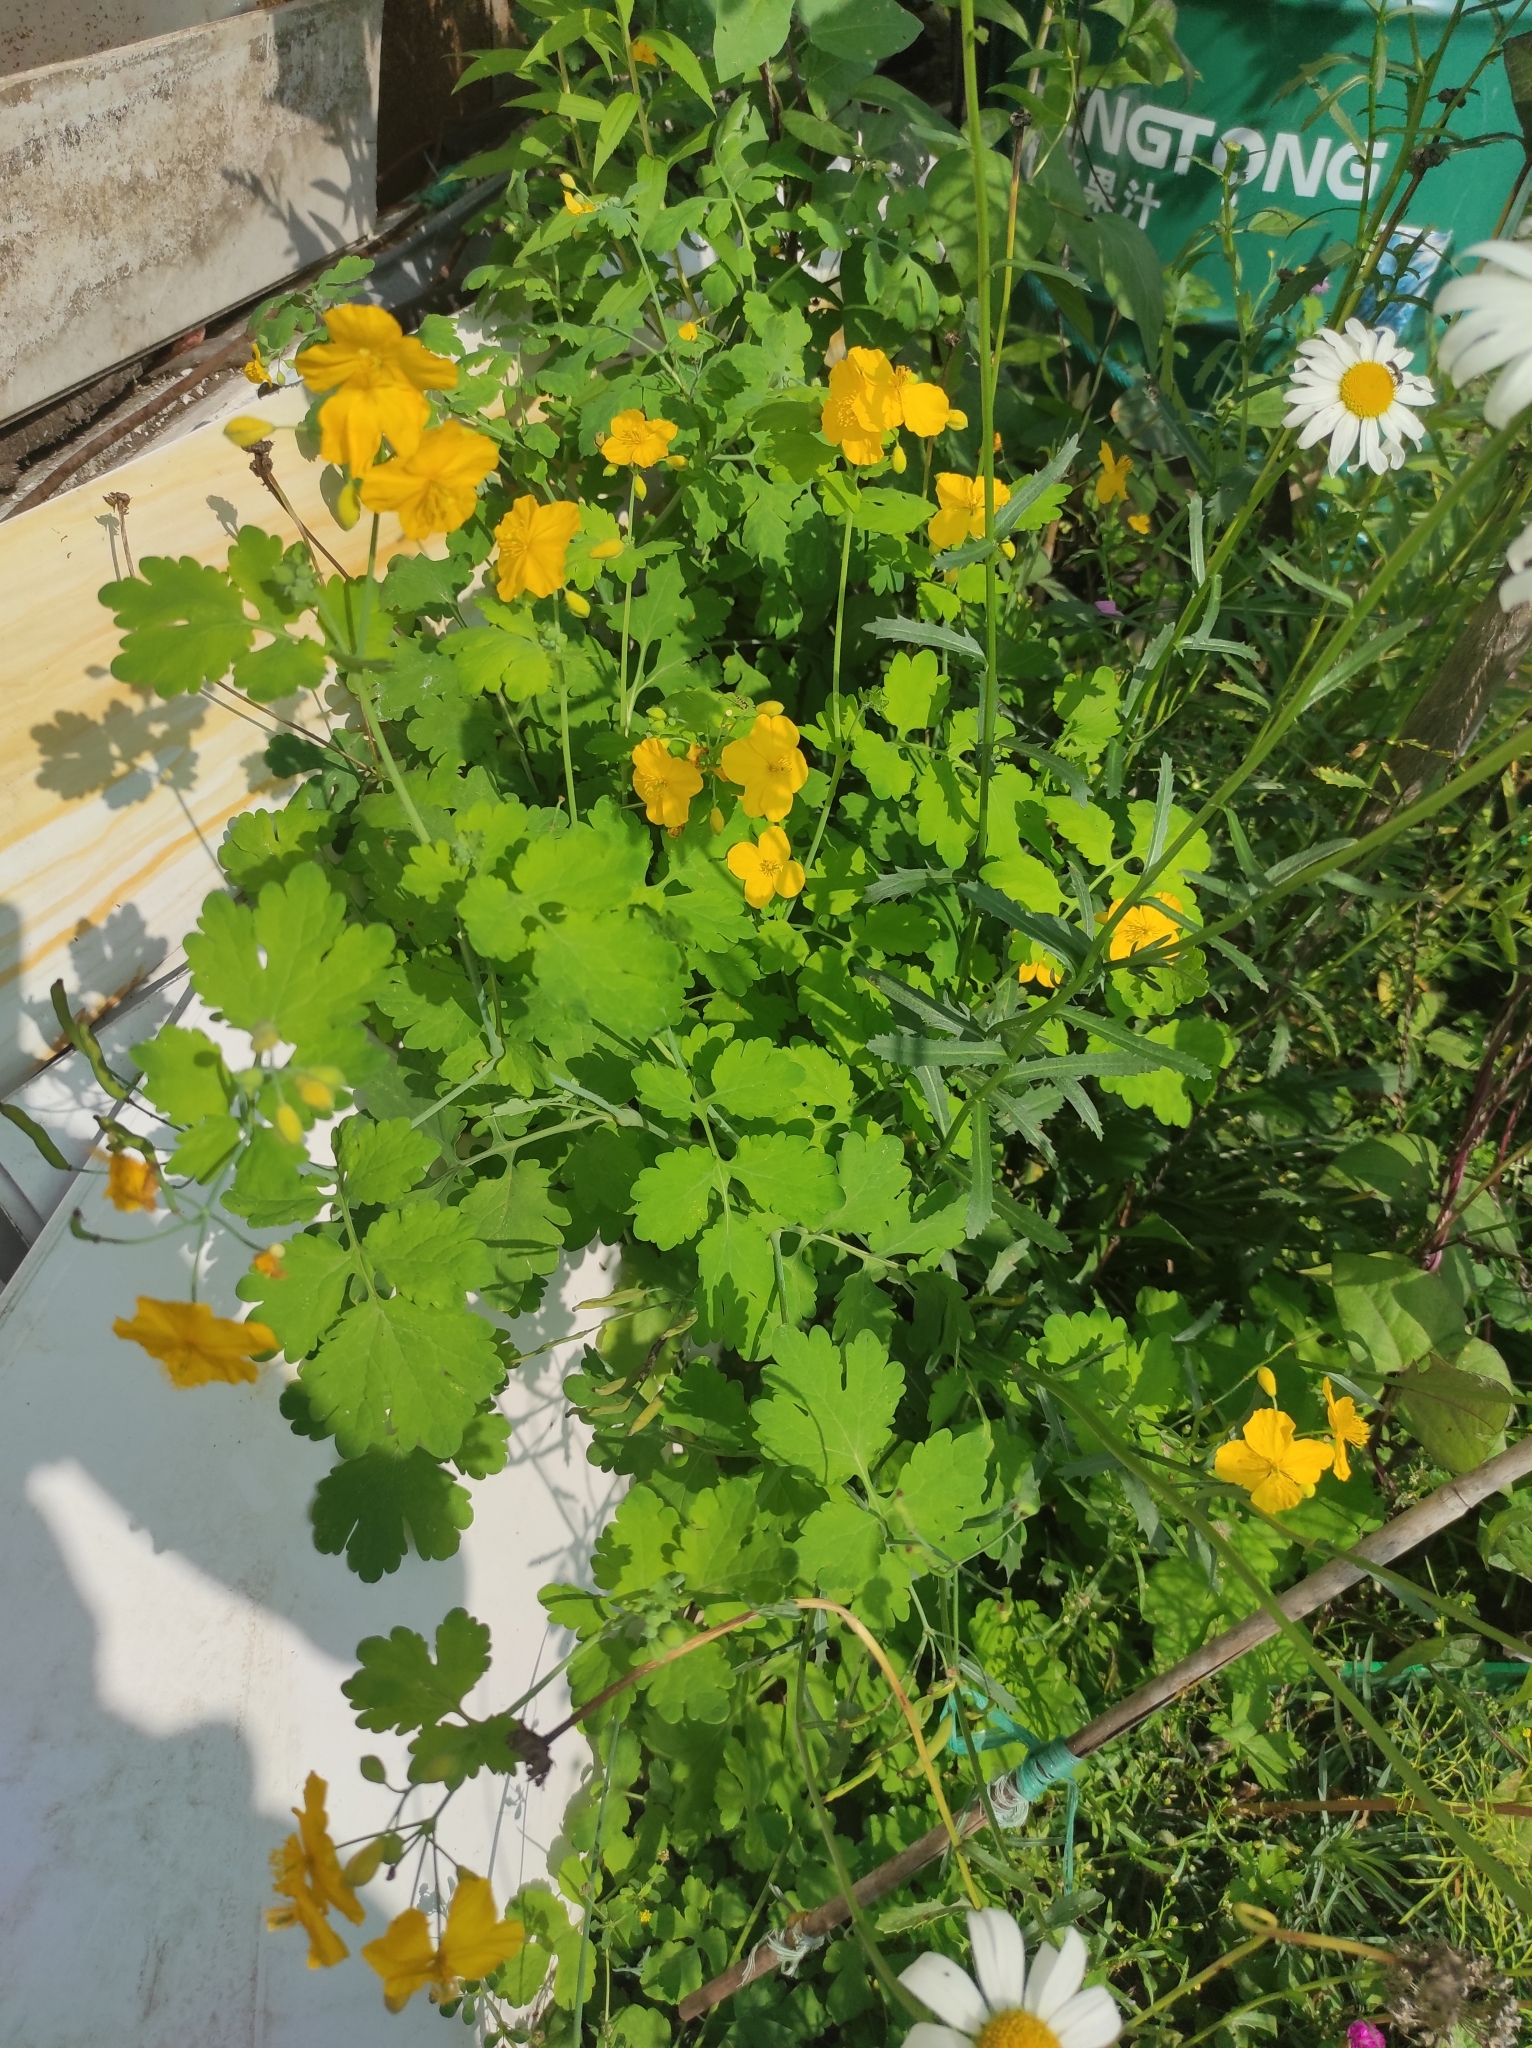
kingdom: Plantae
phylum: Tracheophyta
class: Magnoliopsida
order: Ranunculales
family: Papaveraceae
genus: Chelidonium
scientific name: Chelidonium majus
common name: Greater celandine
